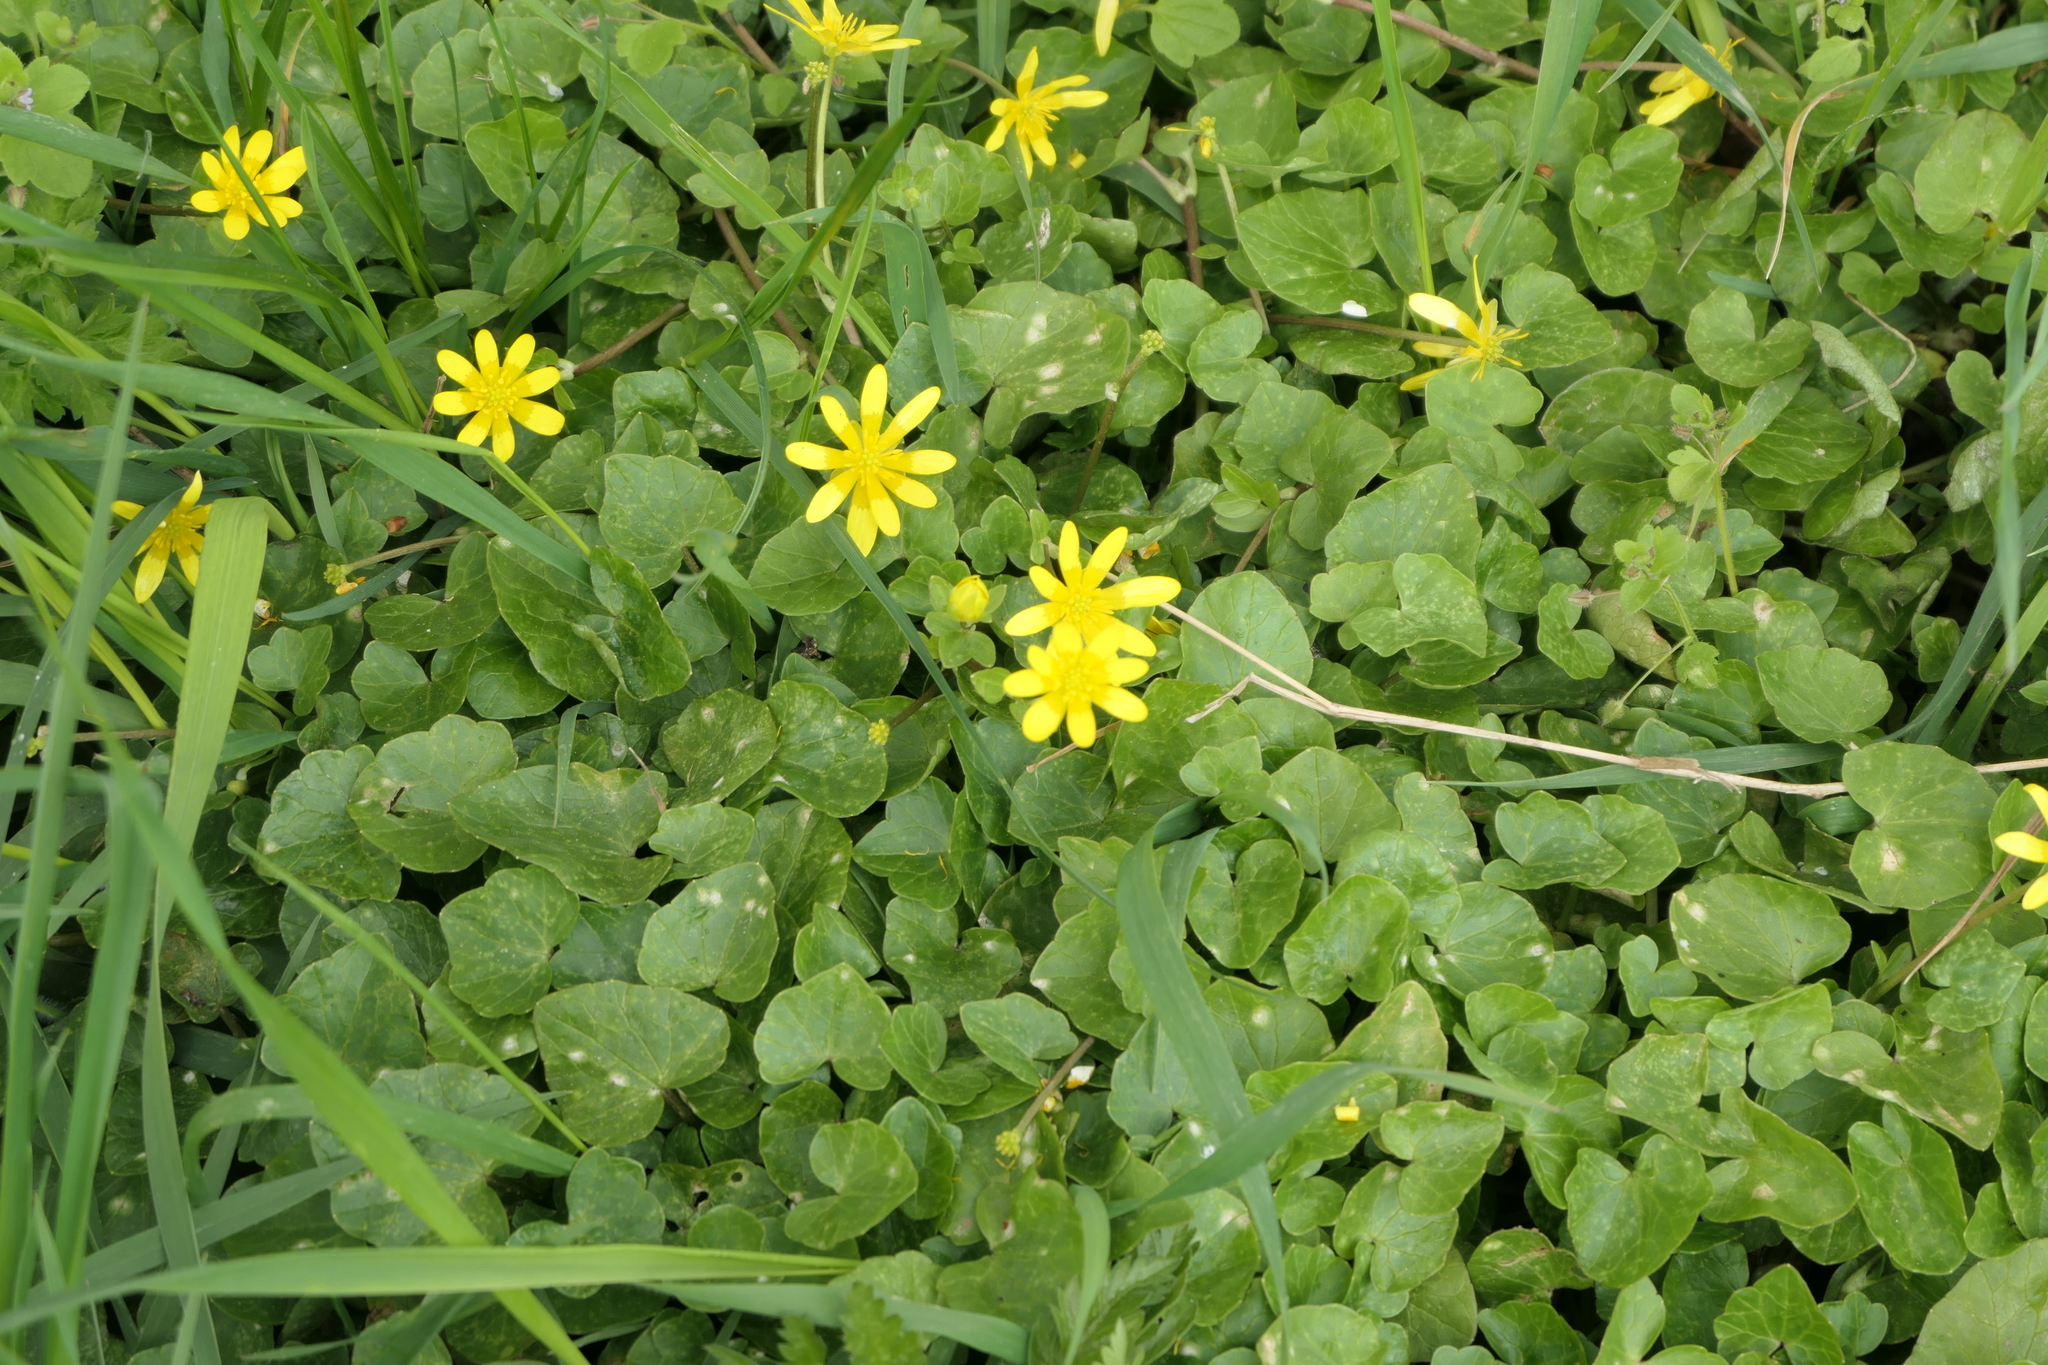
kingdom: Plantae
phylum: Tracheophyta
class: Magnoliopsida
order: Ranunculales
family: Ranunculaceae
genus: Ficaria
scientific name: Ficaria verna
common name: Lesser celandine
